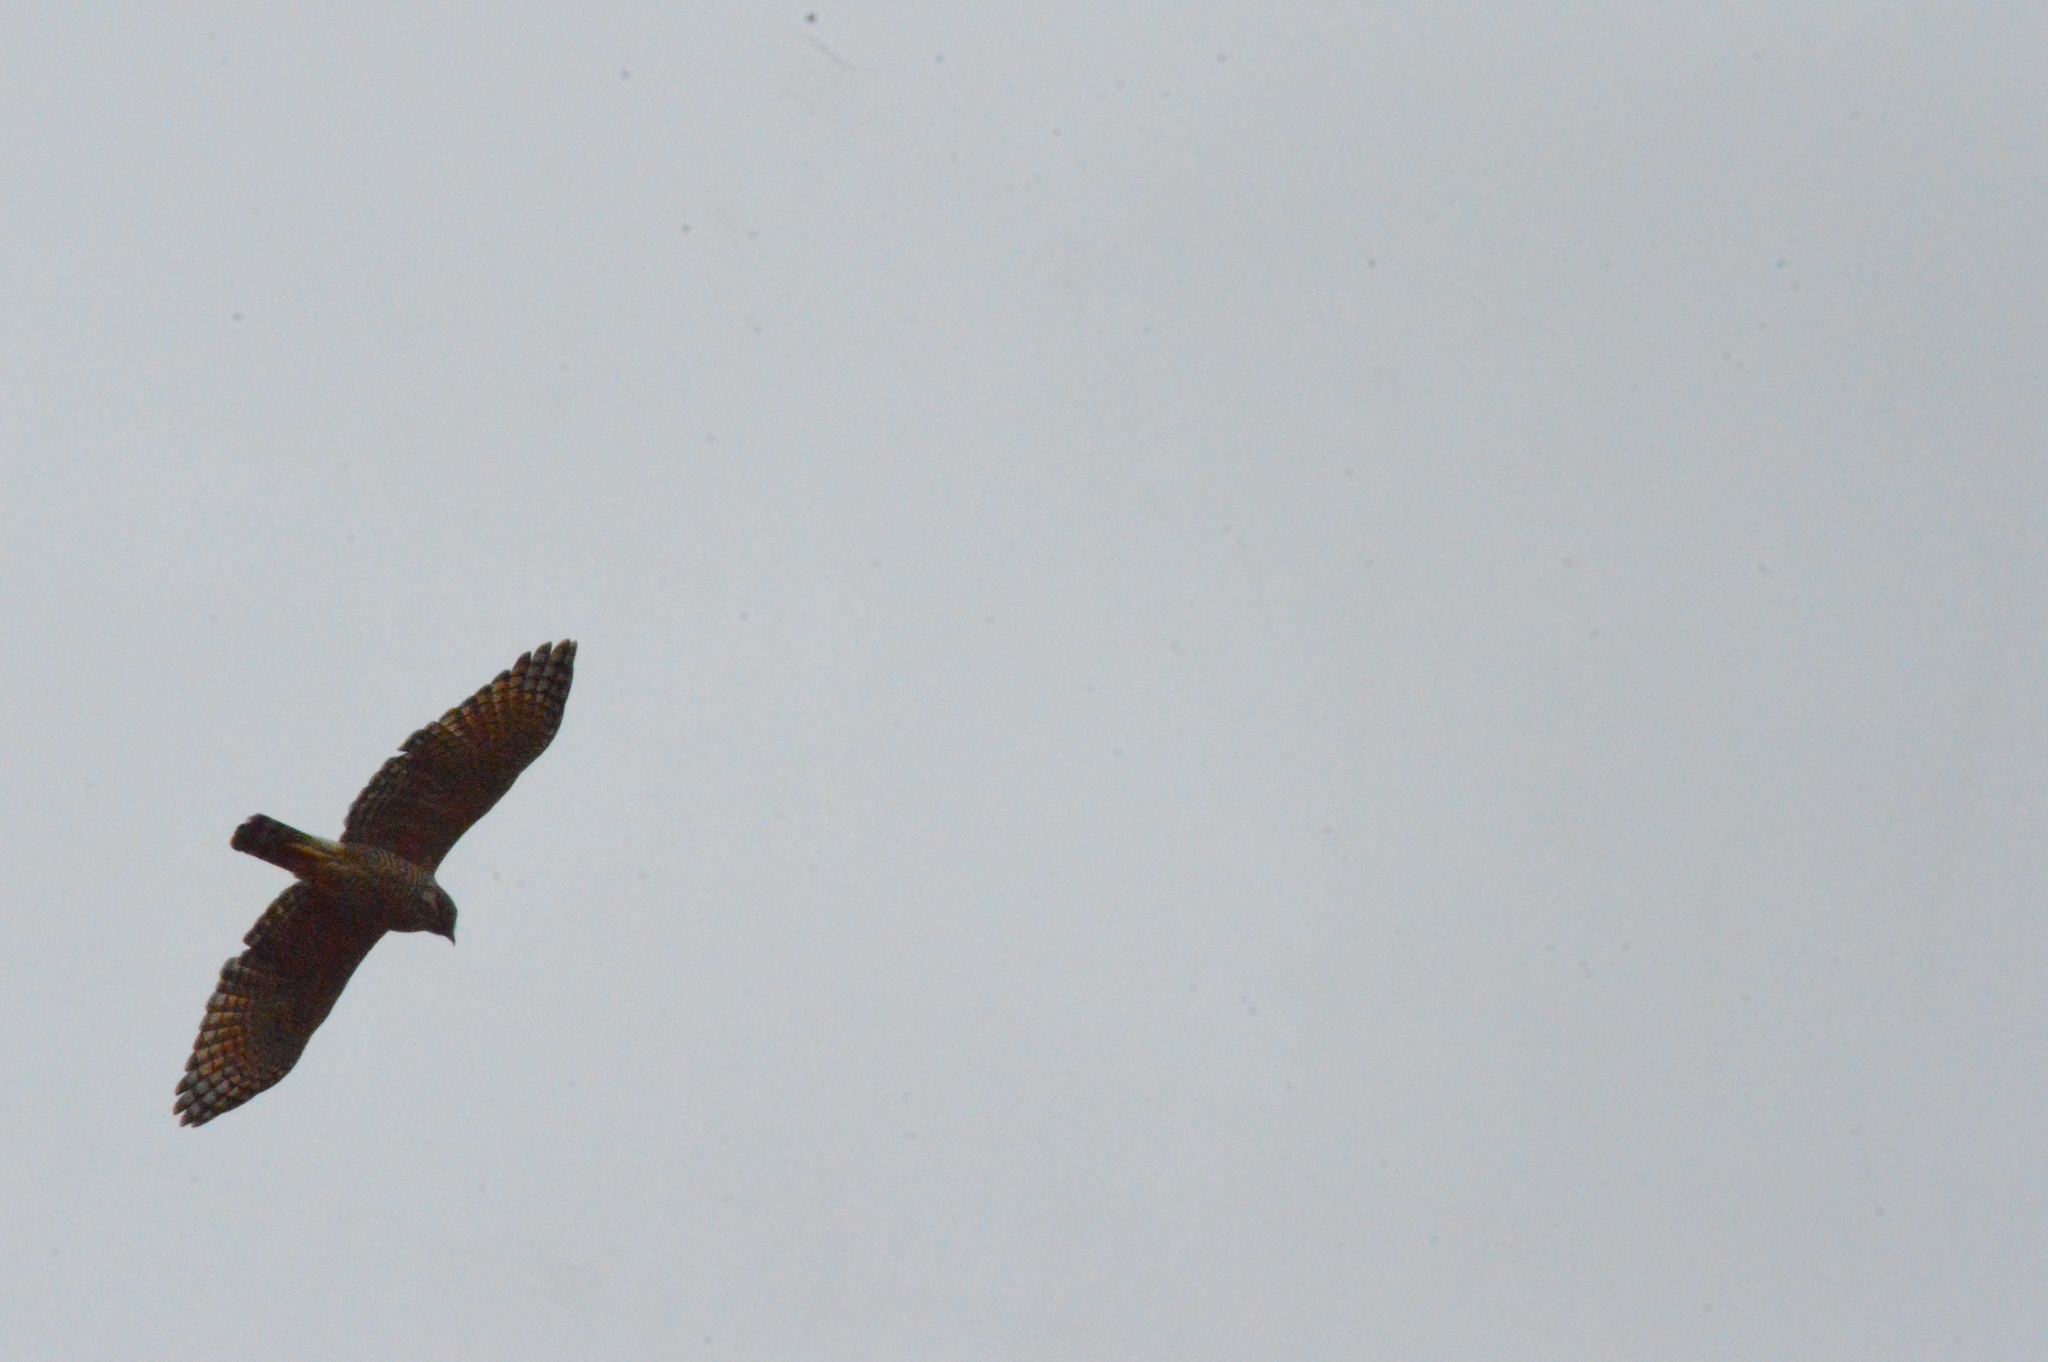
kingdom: Animalia
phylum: Chordata
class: Aves
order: Accipitriformes
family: Accipitridae
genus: Rupornis
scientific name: Rupornis magnirostris
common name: Roadside hawk
